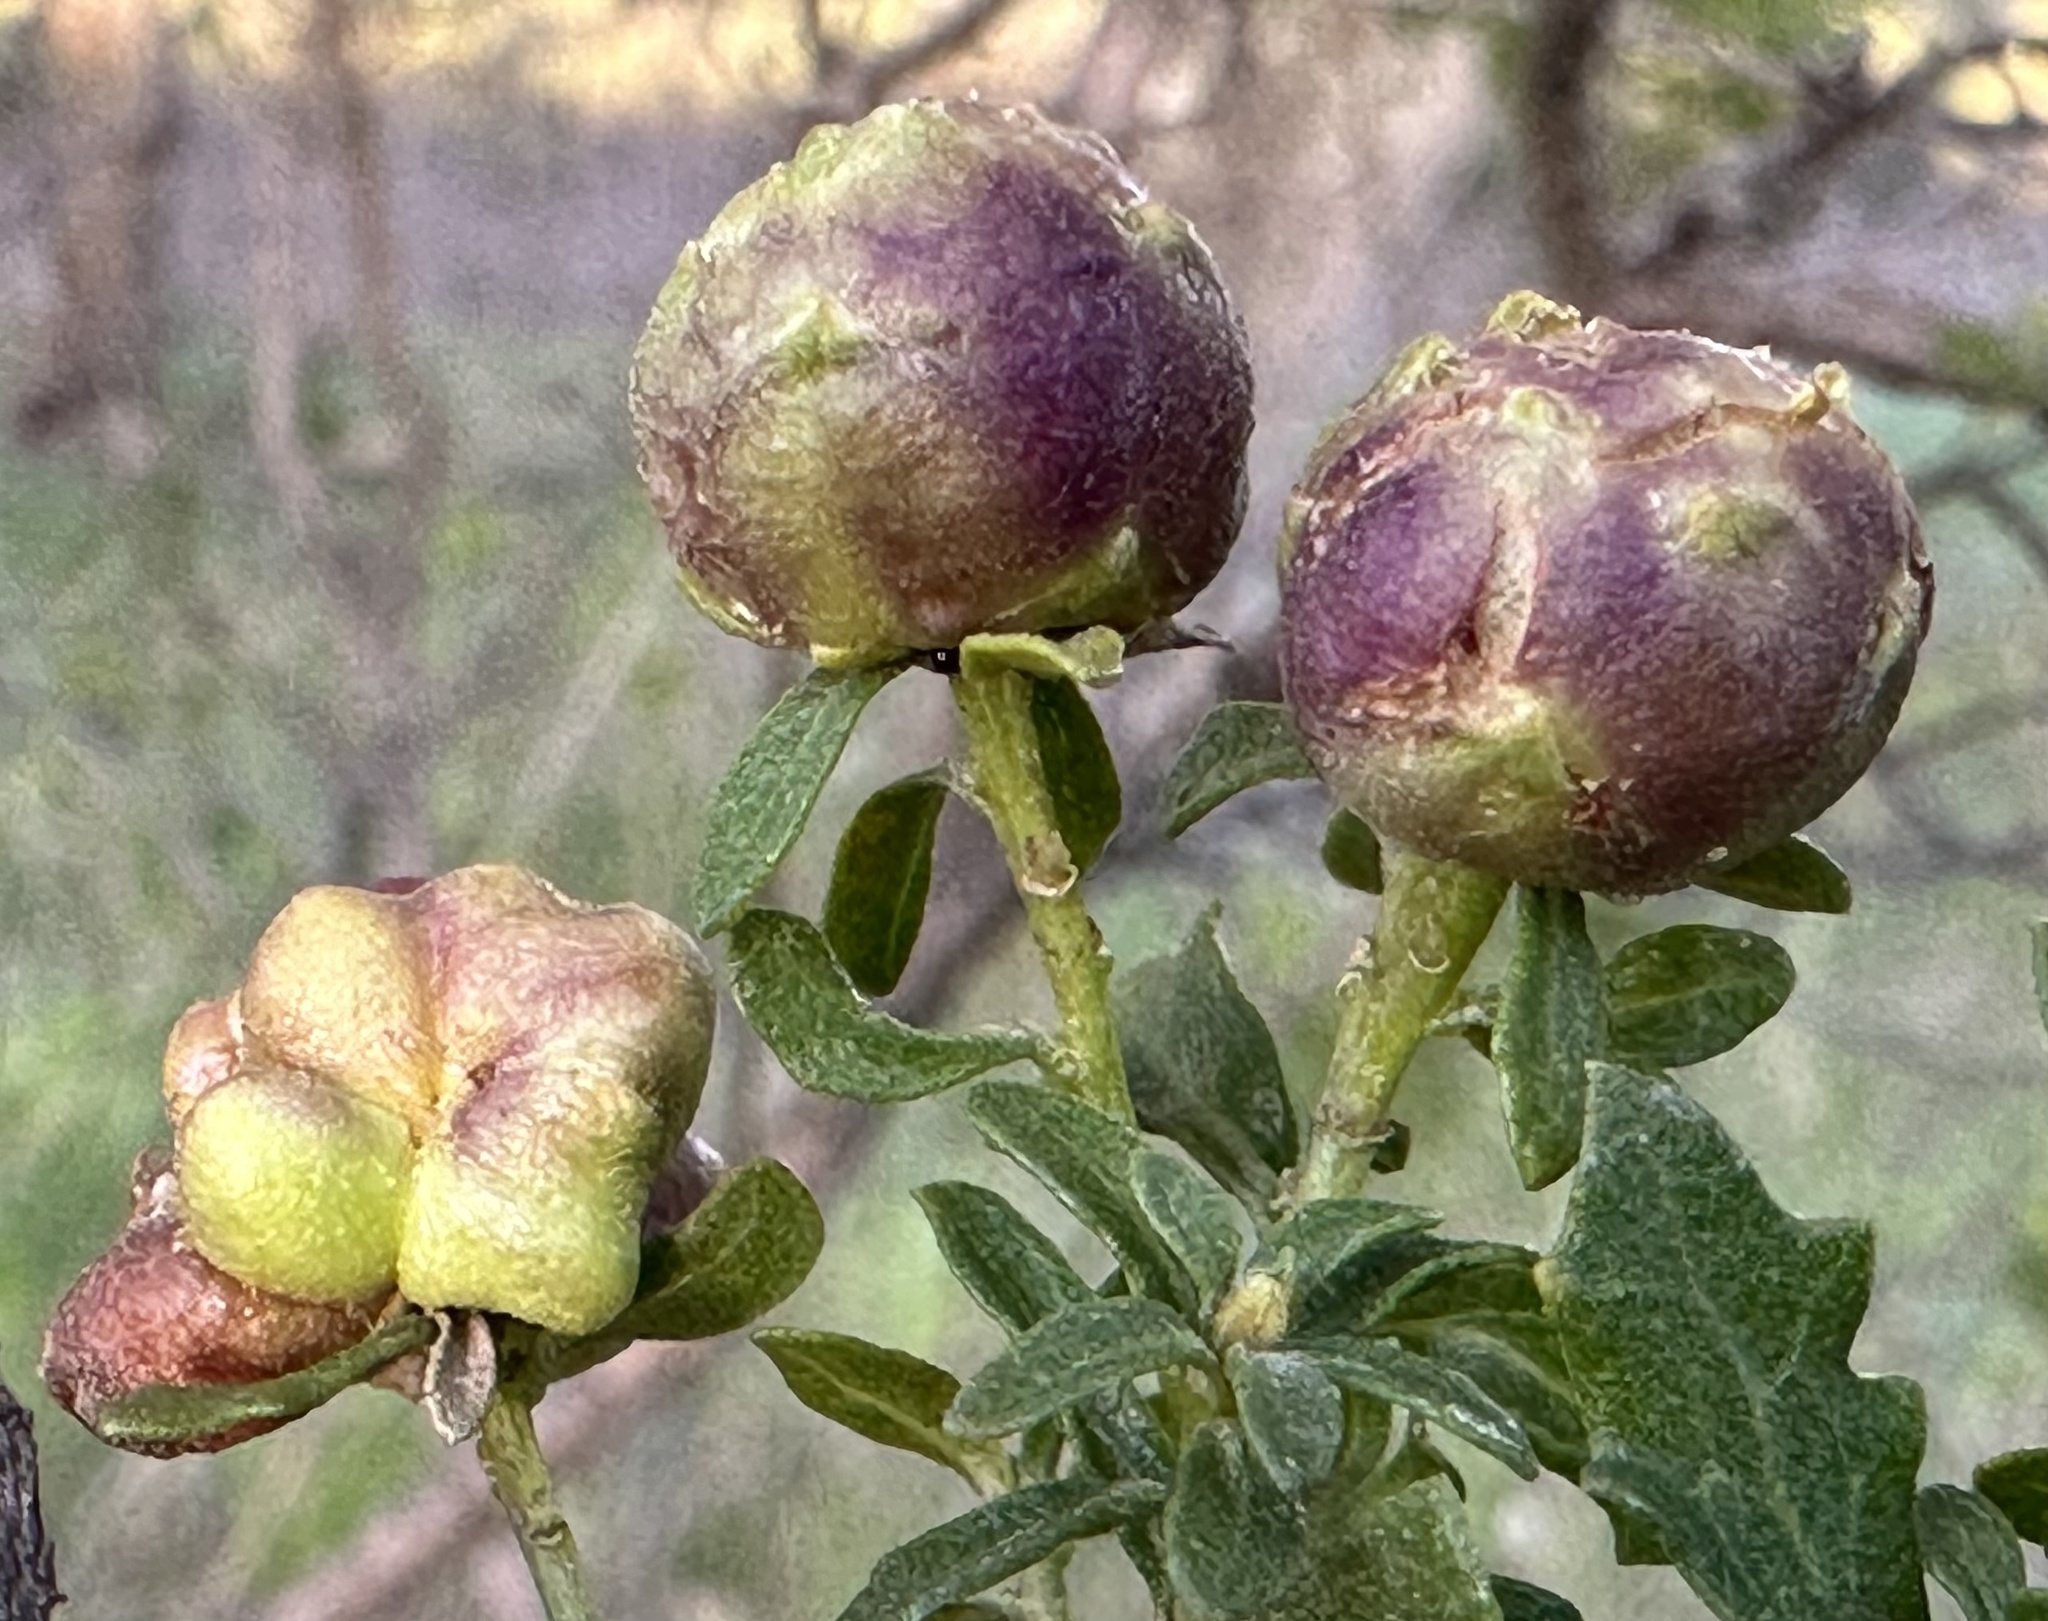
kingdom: Animalia
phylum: Arthropoda
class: Insecta
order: Diptera
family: Cecidomyiidae
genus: Rhopalomyia
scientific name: Rhopalomyia californica
